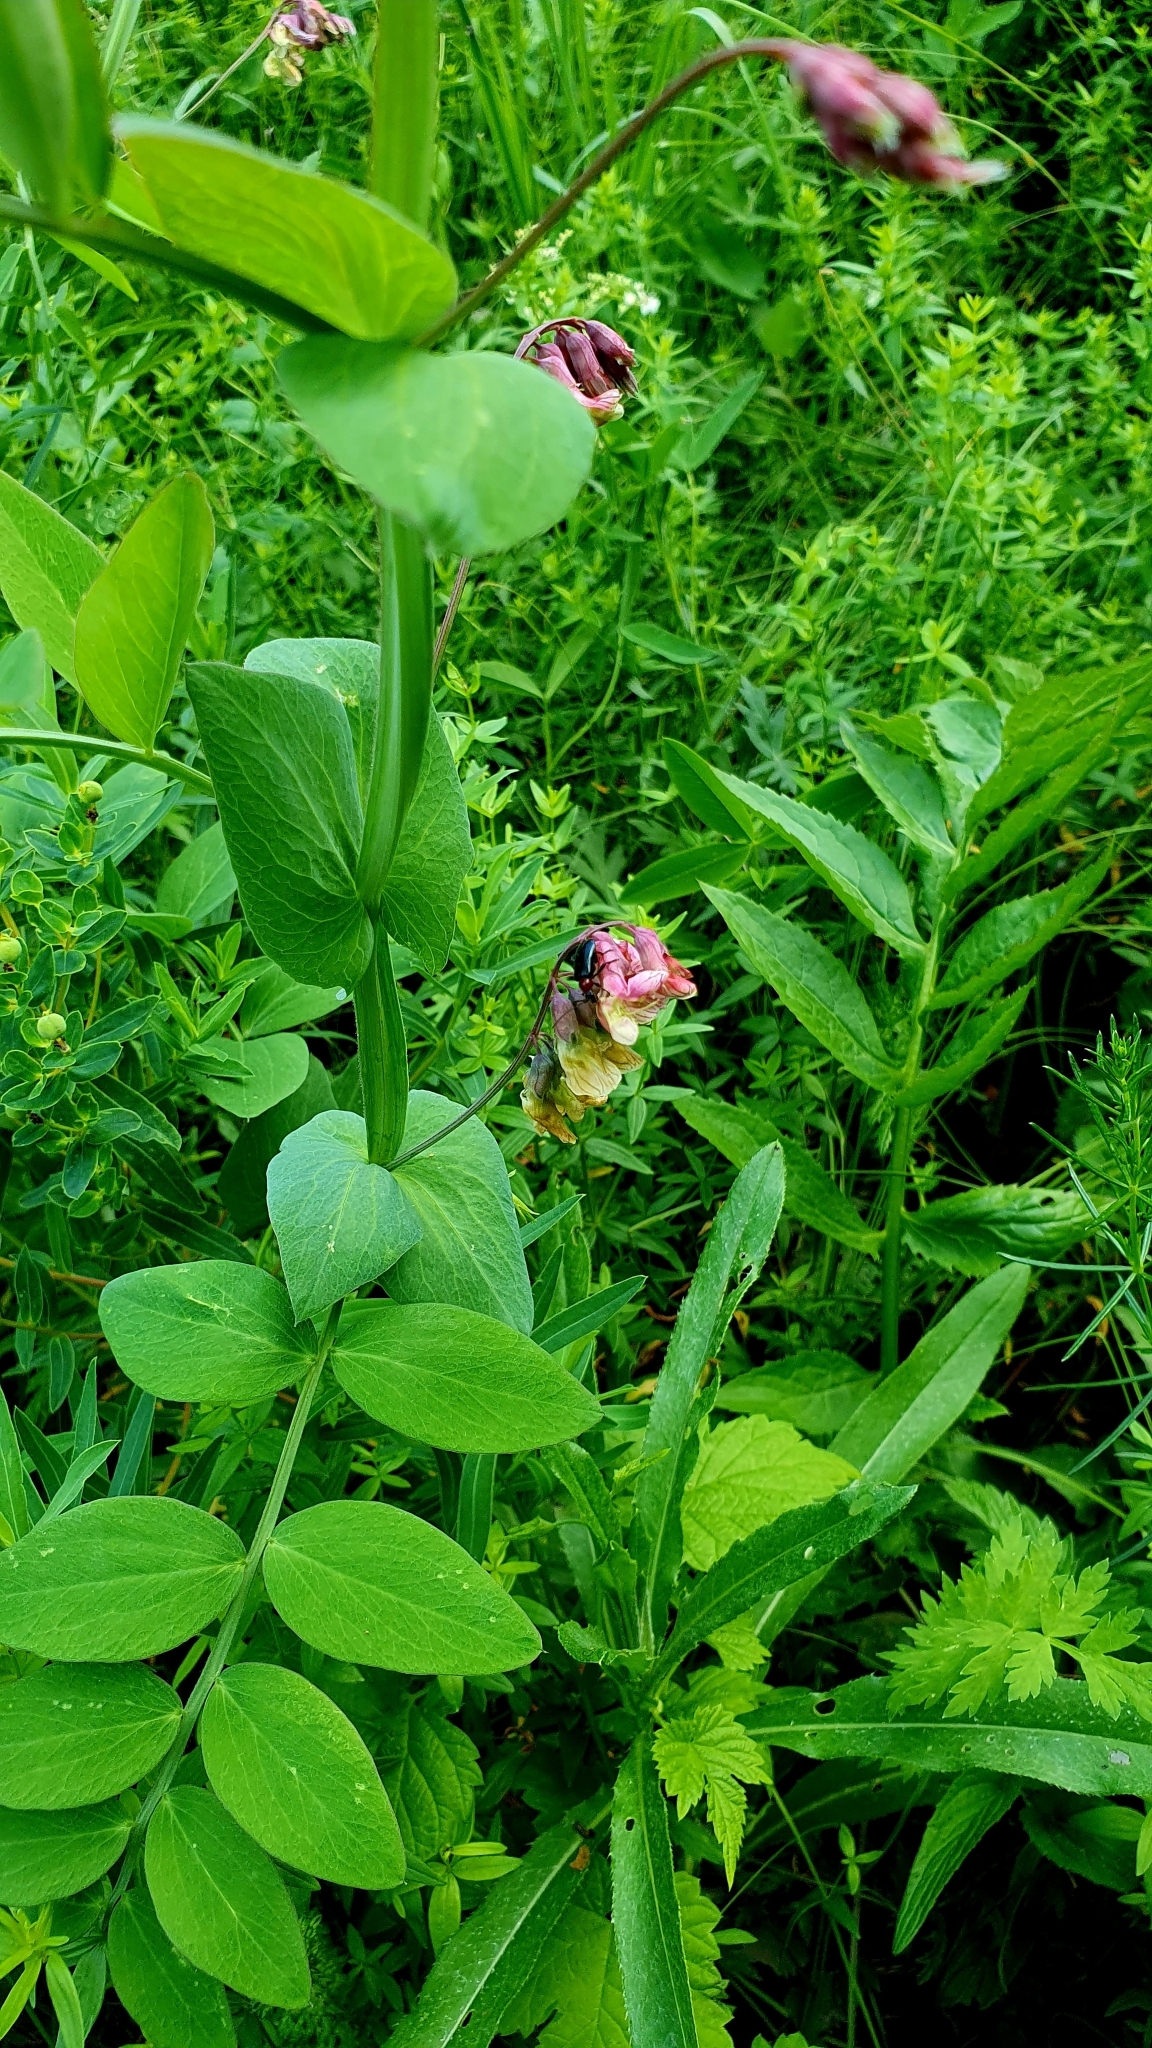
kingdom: Plantae
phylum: Tracheophyta
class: Magnoliopsida
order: Fabales
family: Fabaceae
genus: Lathyrus
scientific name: Lathyrus pisiformis
